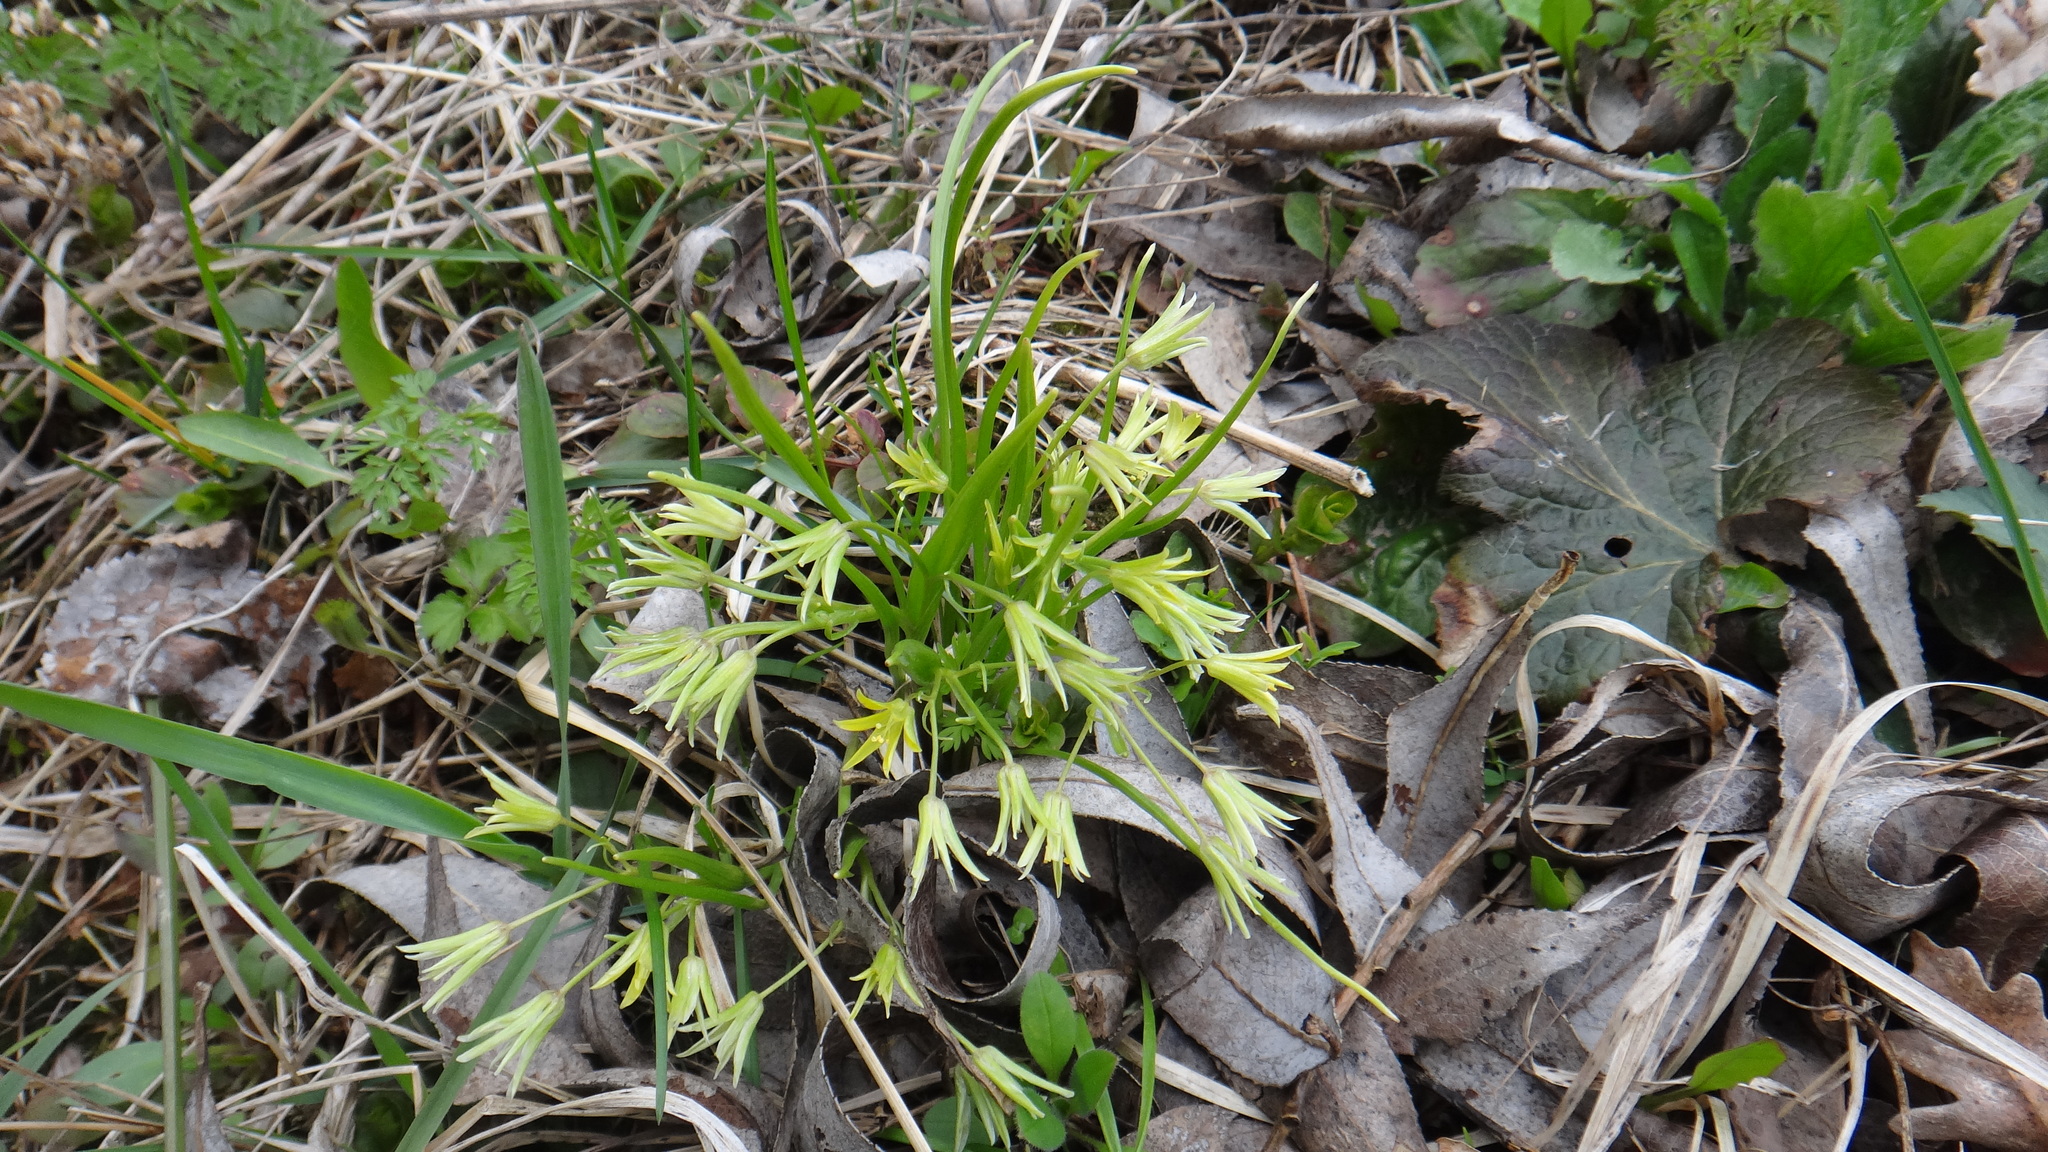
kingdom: Plantae
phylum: Tracheophyta
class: Liliopsida
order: Liliales
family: Liliaceae
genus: Gagea
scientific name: Gagea minima
